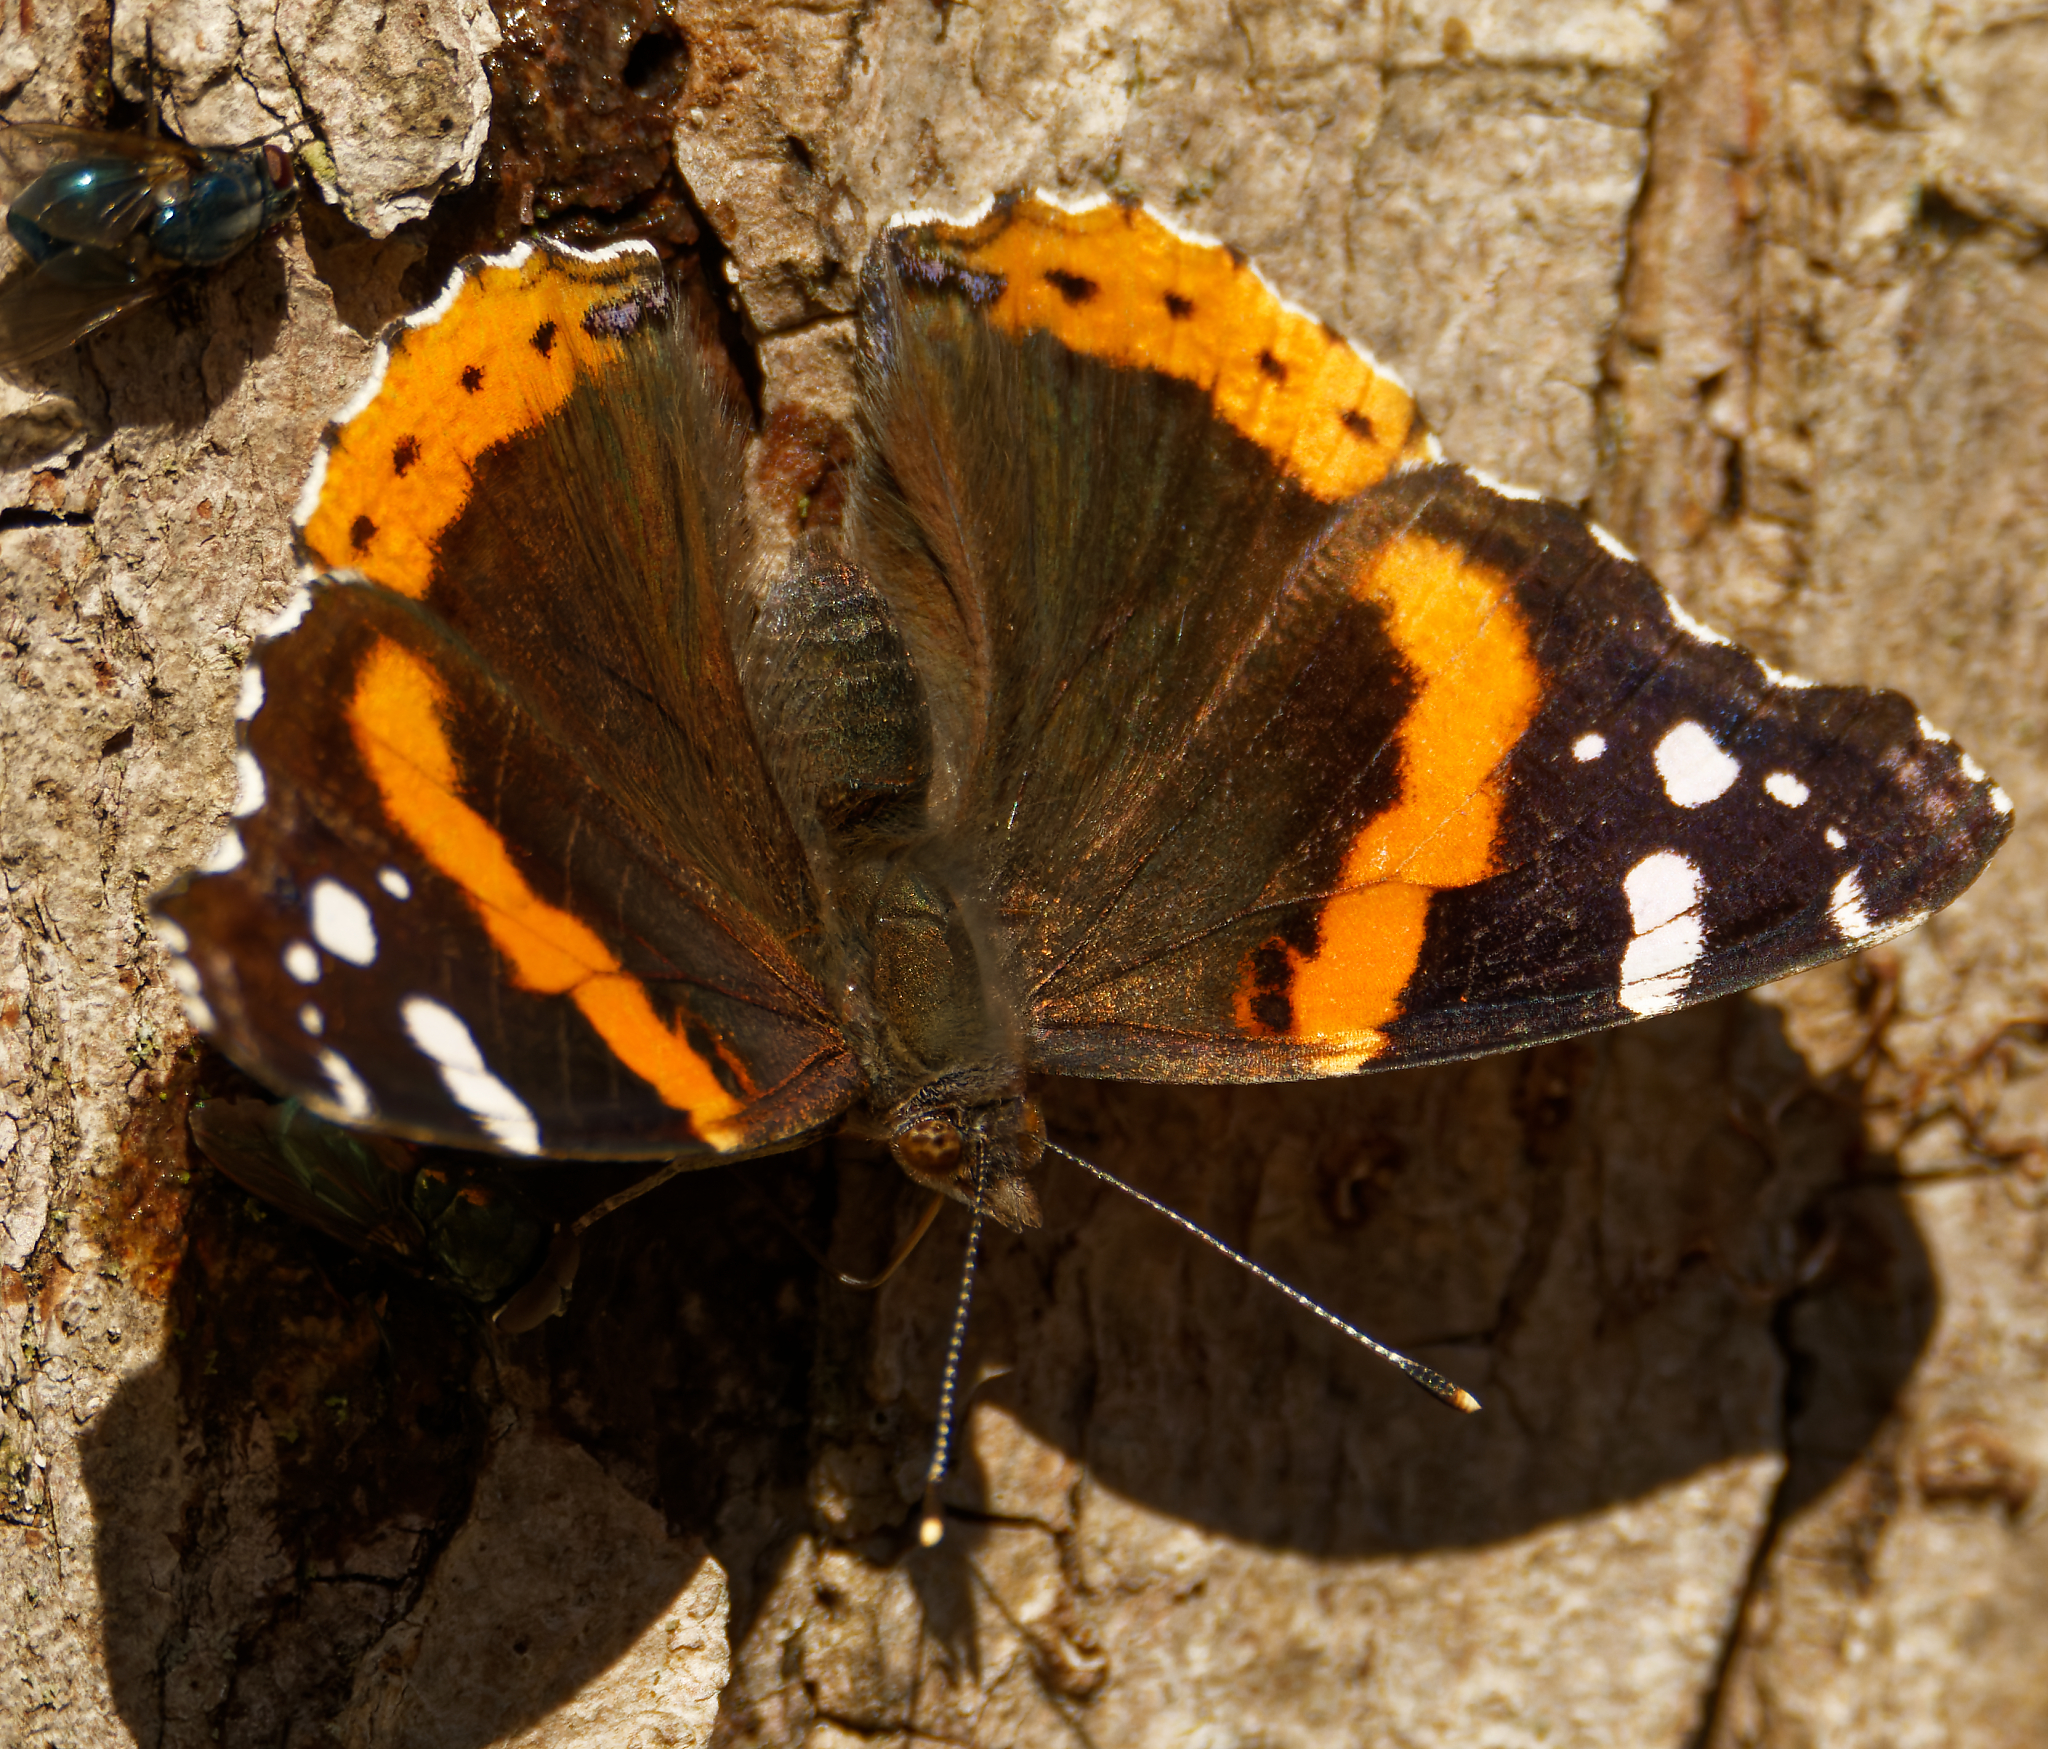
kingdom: Animalia
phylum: Arthropoda
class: Insecta
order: Lepidoptera
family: Nymphalidae
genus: Vanessa
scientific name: Vanessa atalanta
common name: Red admiral
